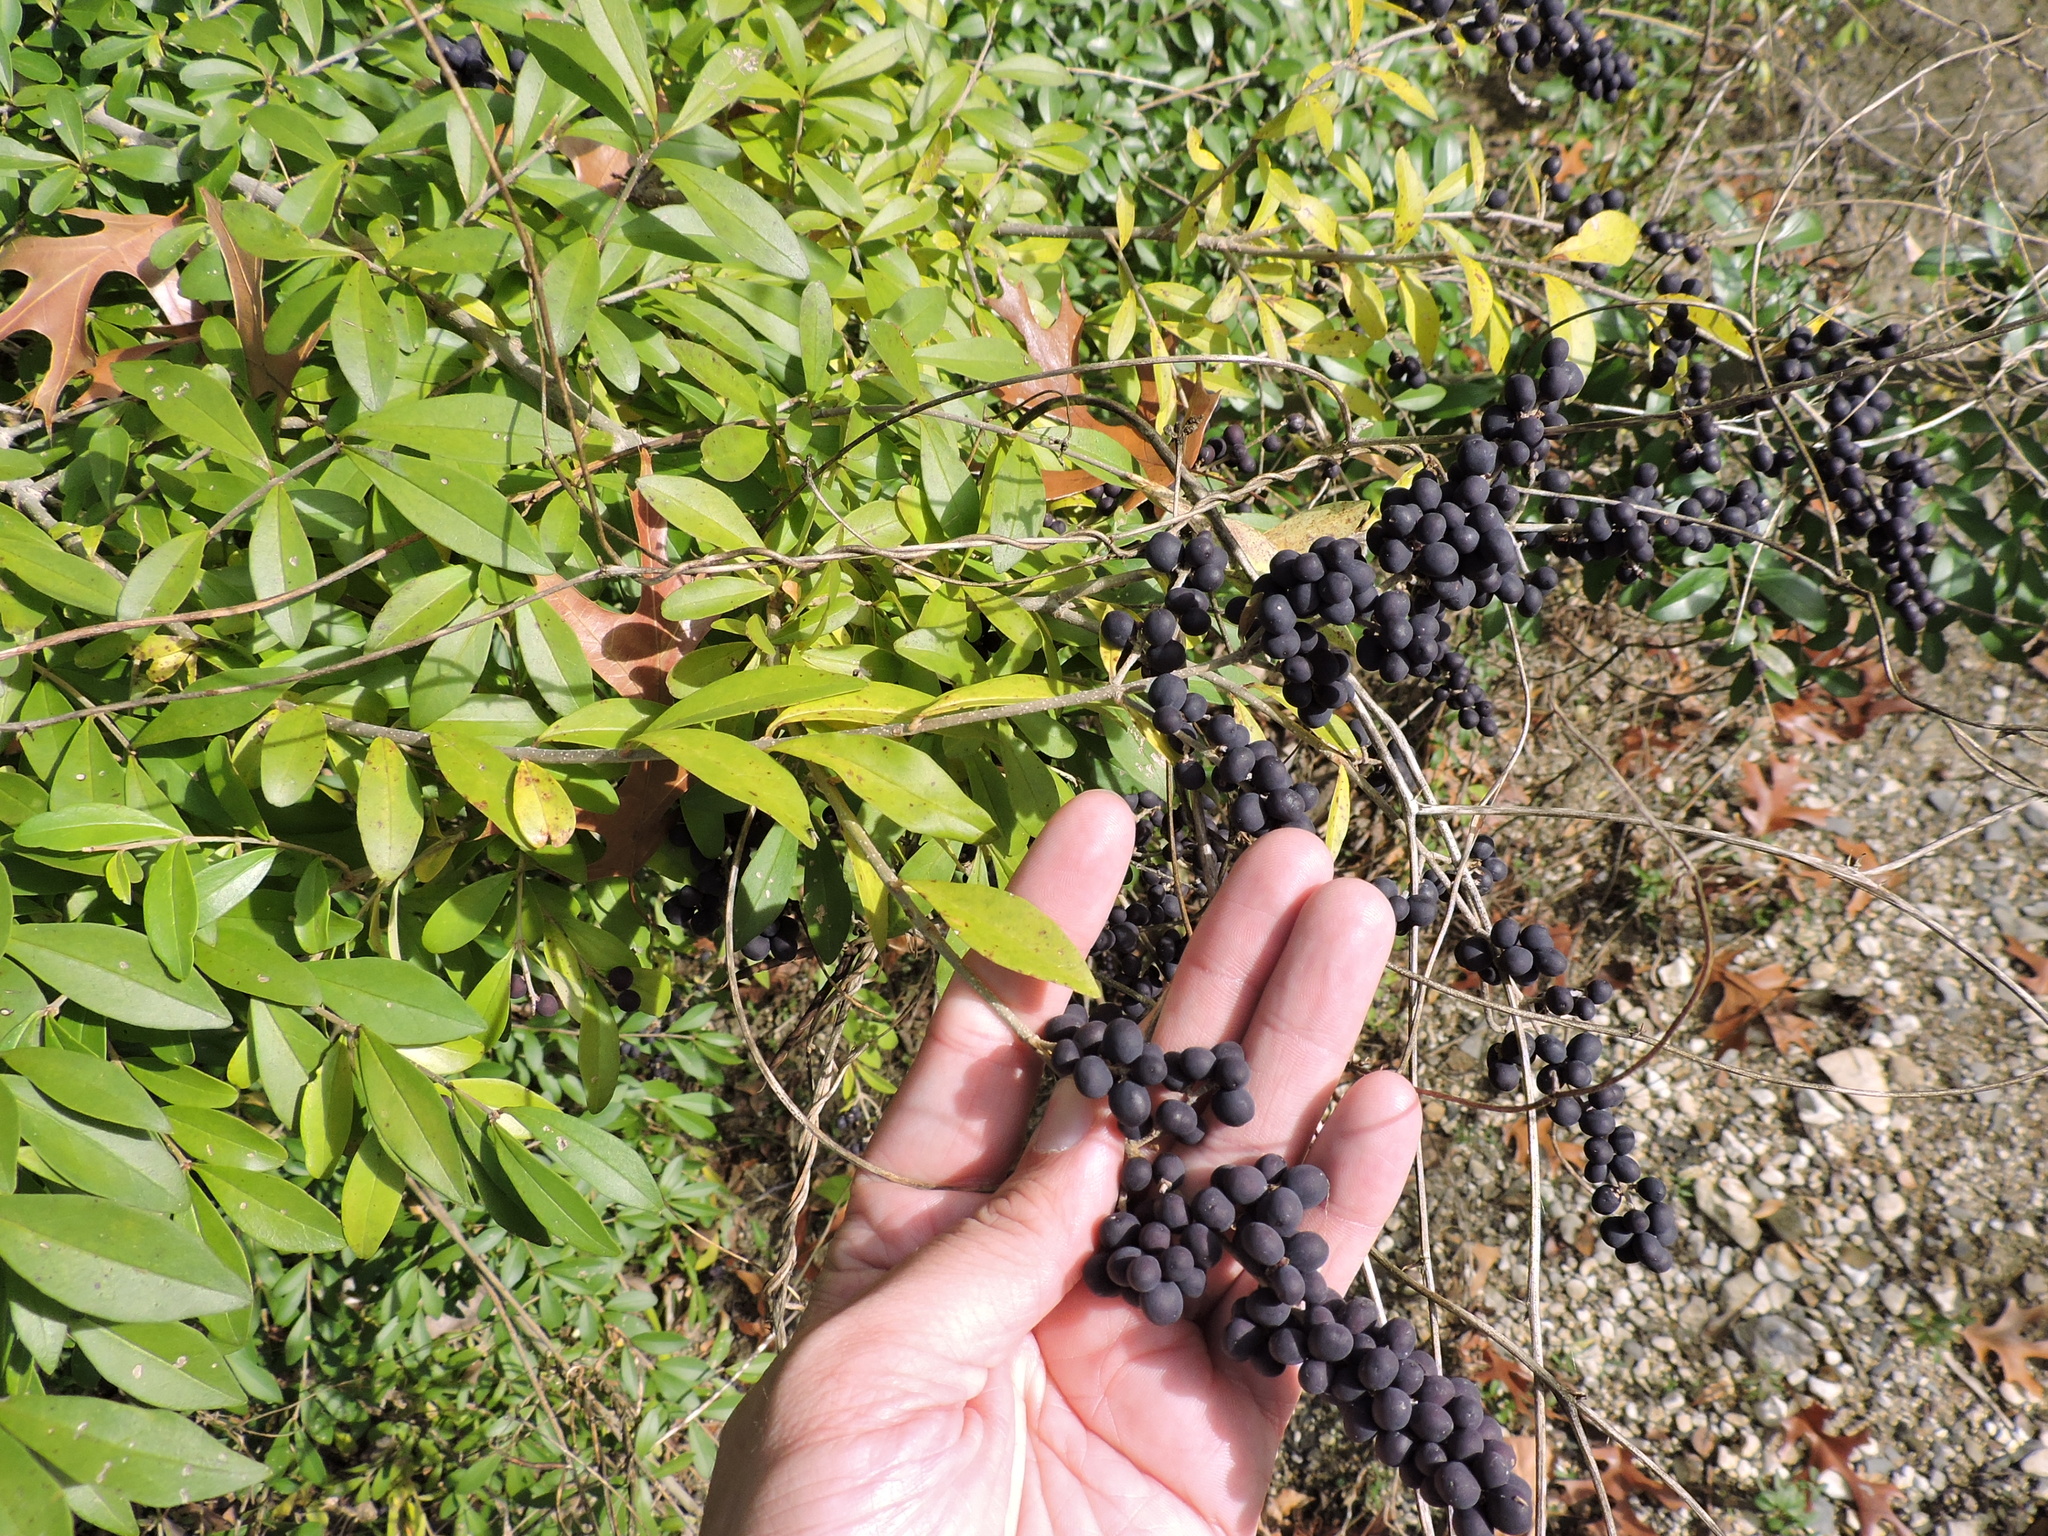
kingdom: Plantae
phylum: Tracheophyta
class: Magnoliopsida
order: Lamiales
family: Oleaceae
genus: Ligustrum
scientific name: Ligustrum quihoui
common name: Waxyleaf privet
